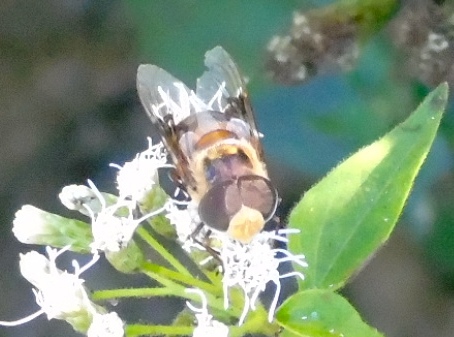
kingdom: Animalia
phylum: Arthropoda
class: Insecta
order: Diptera
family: Syrphidae
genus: Copestylum
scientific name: Copestylum quadratum
